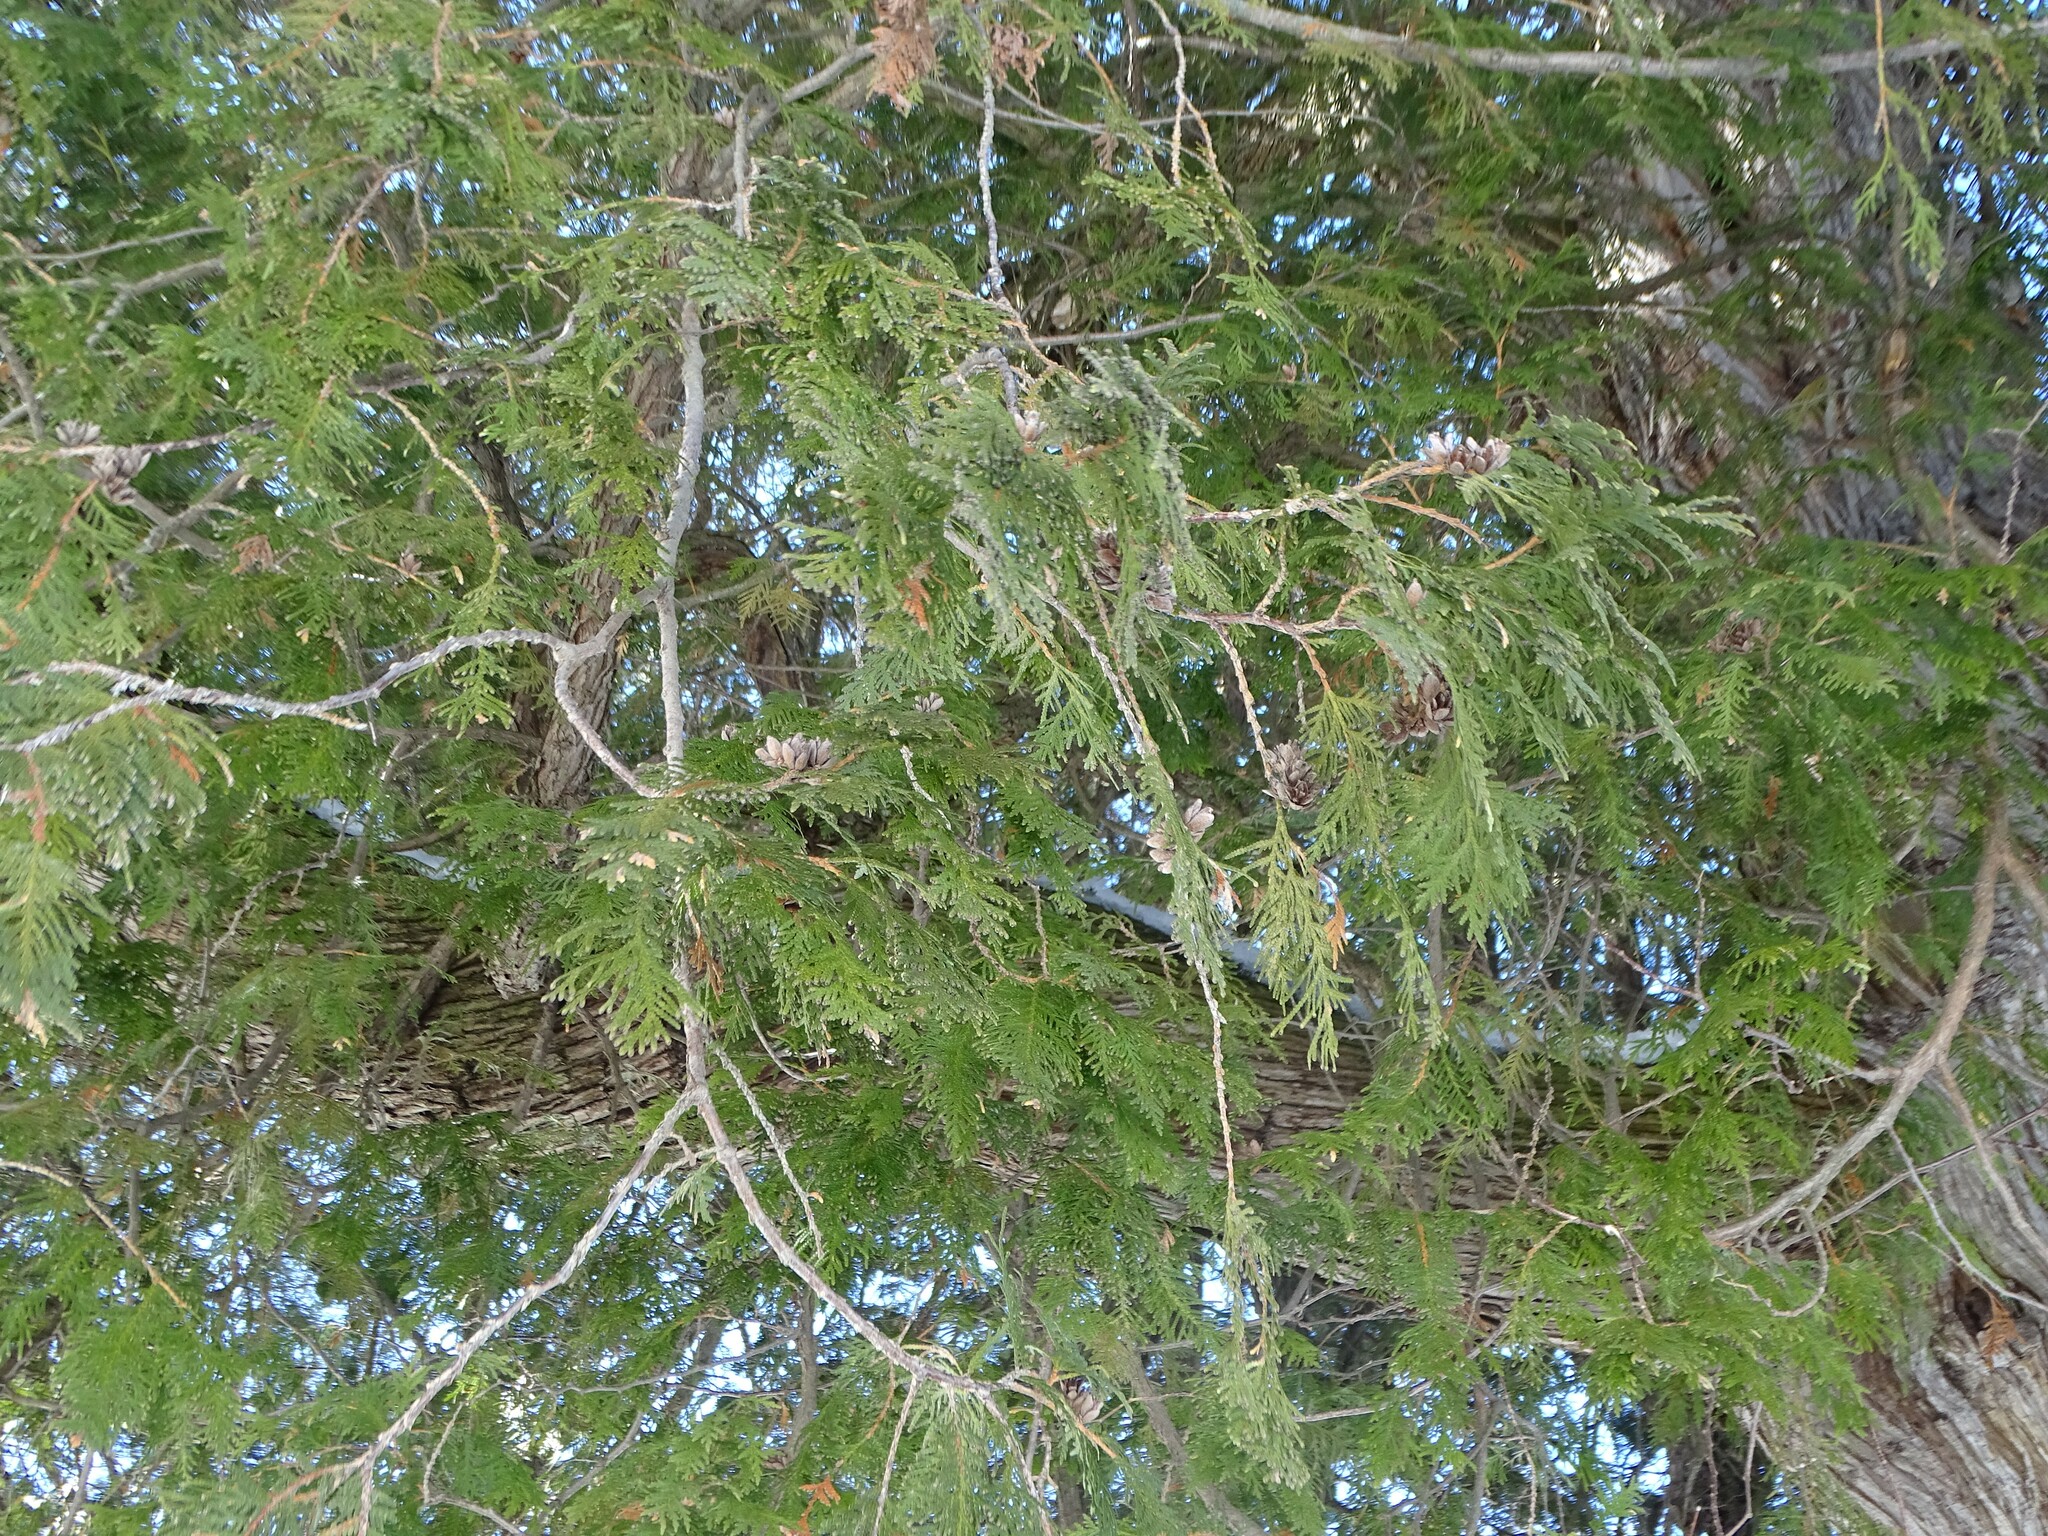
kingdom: Plantae
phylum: Tracheophyta
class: Pinopsida
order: Pinales
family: Cupressaceae
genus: Thuja
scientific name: Thuja occidentalis
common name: Northern white-cedar
